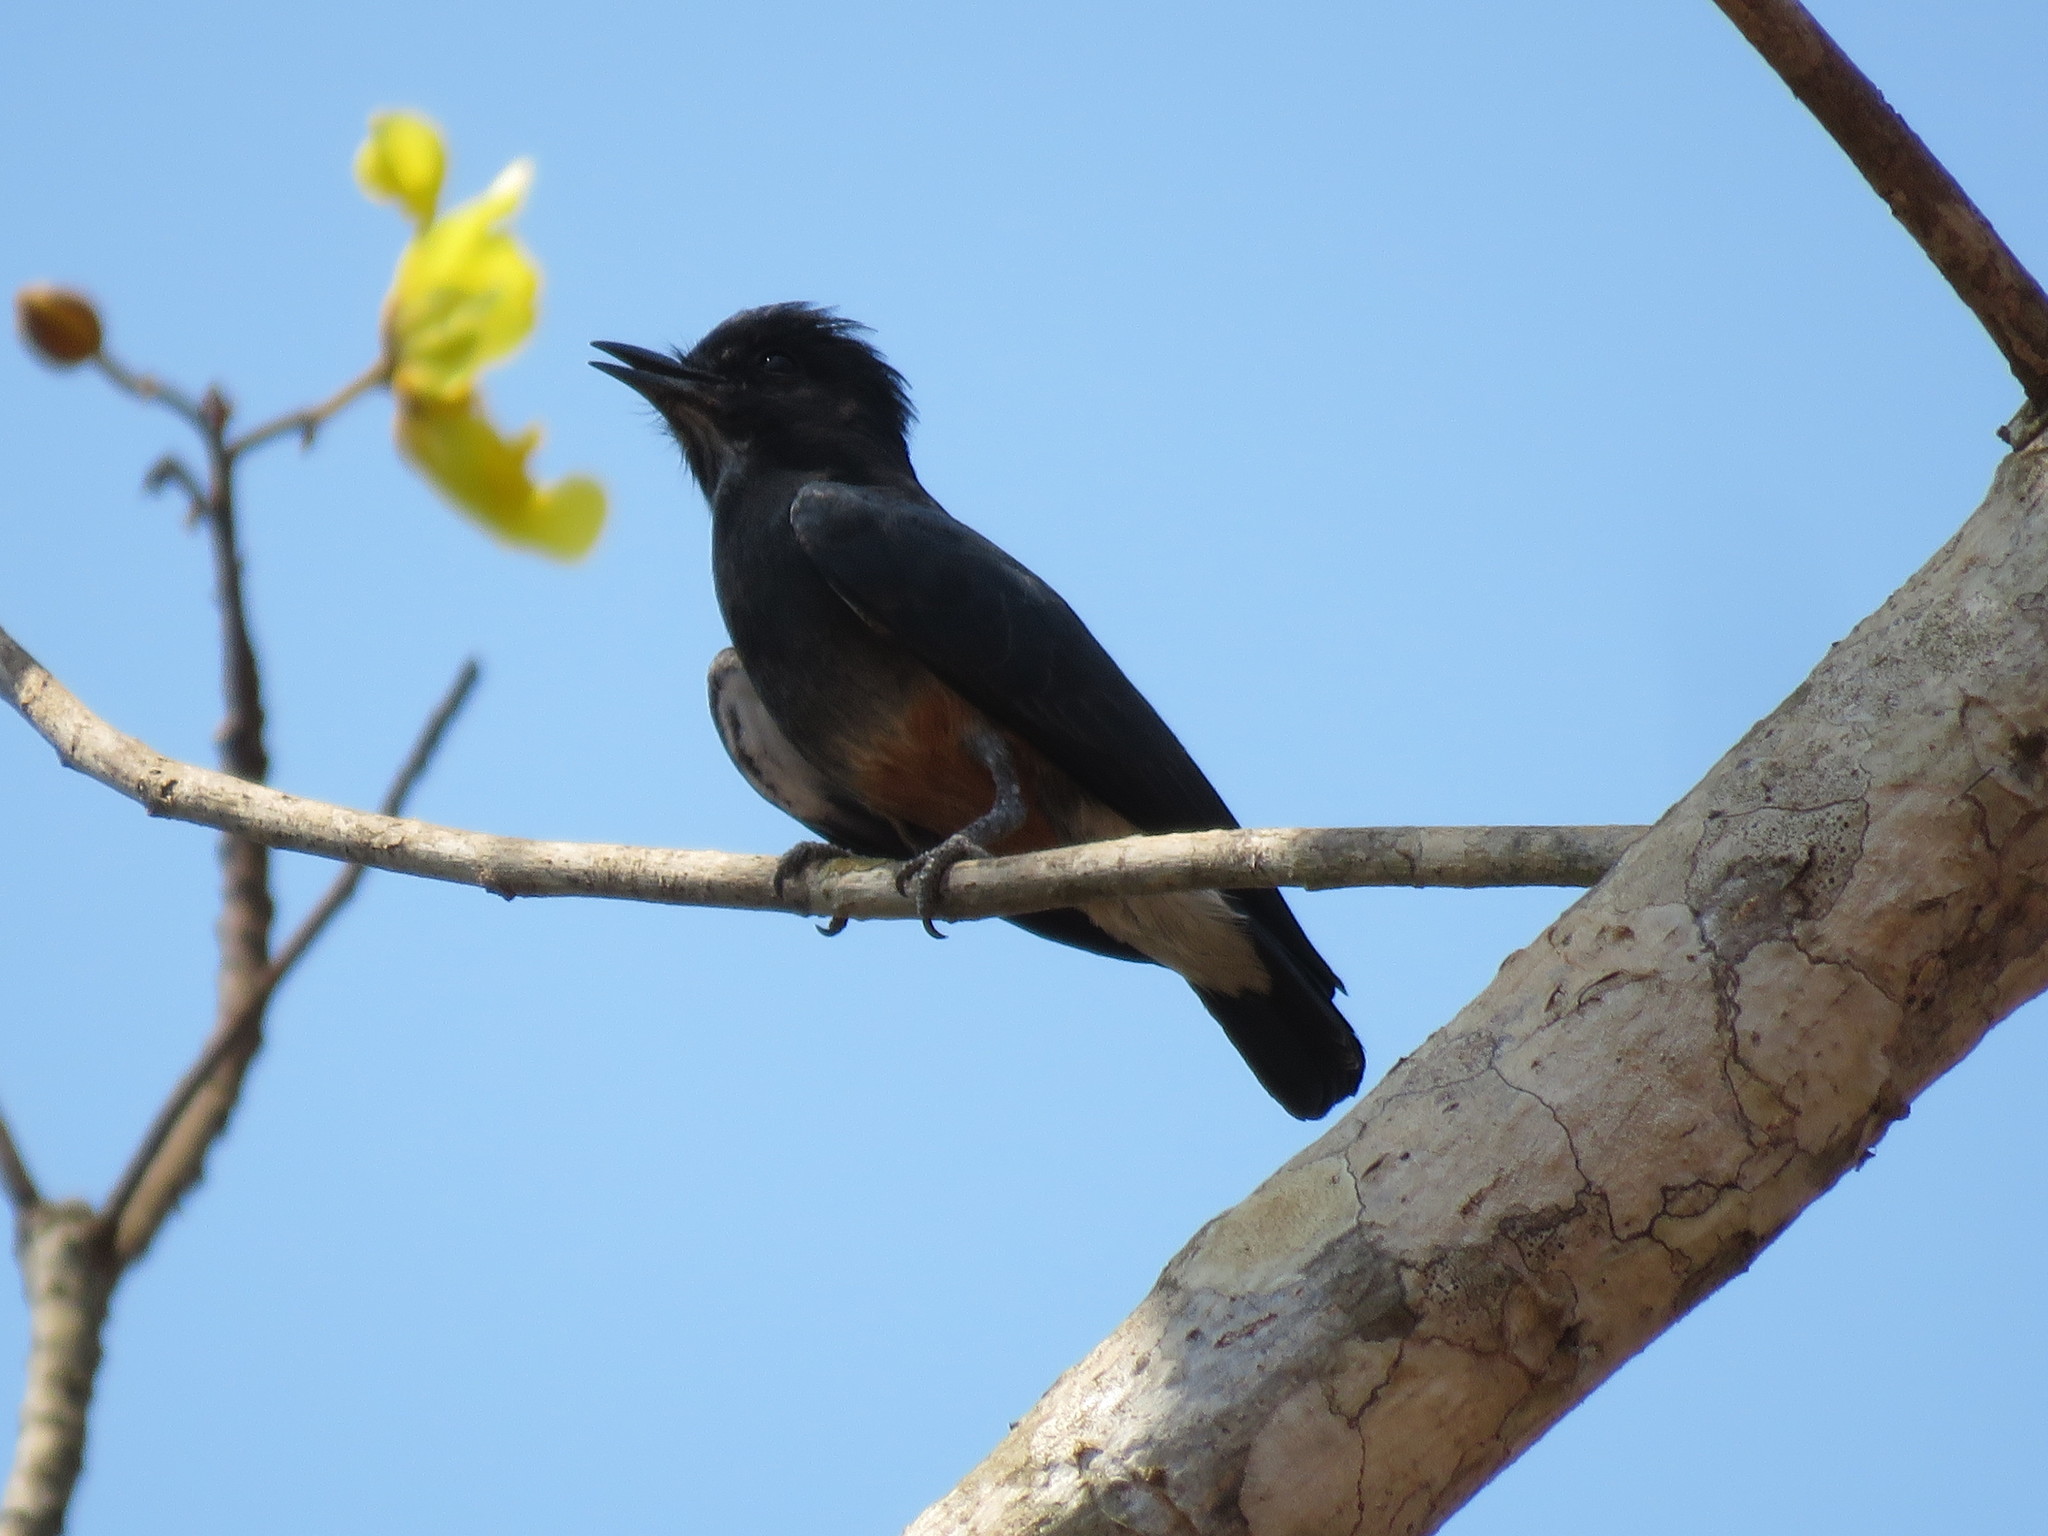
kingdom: Animalia
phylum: Chordata
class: Aves
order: Piciformes
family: Bucconidae
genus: Chelidoptera
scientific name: Chelidoptera tenebrosa
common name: Swallow-winged puffbird
